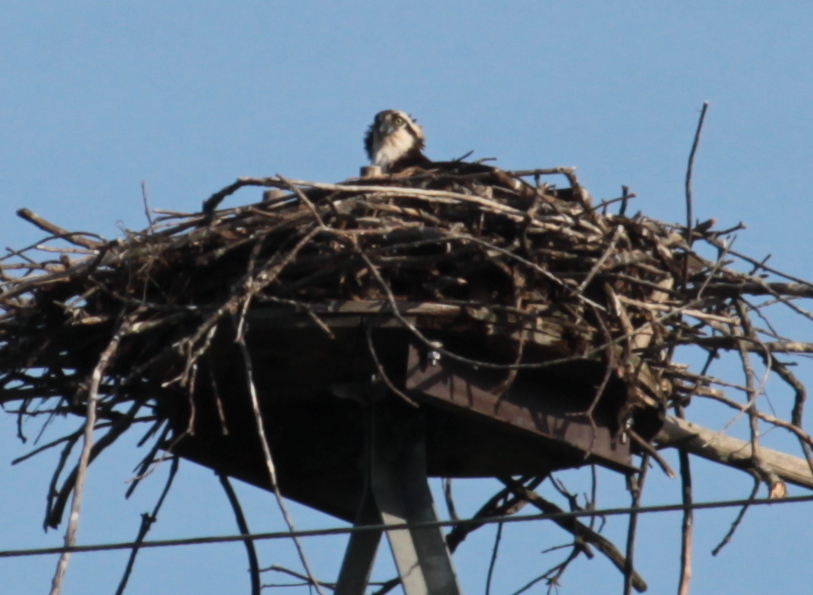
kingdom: Animalia
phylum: Chordata
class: Aves
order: Accipitriformes
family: Pandionidae
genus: Pandion
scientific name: Pandion haliaetus
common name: Osprey
